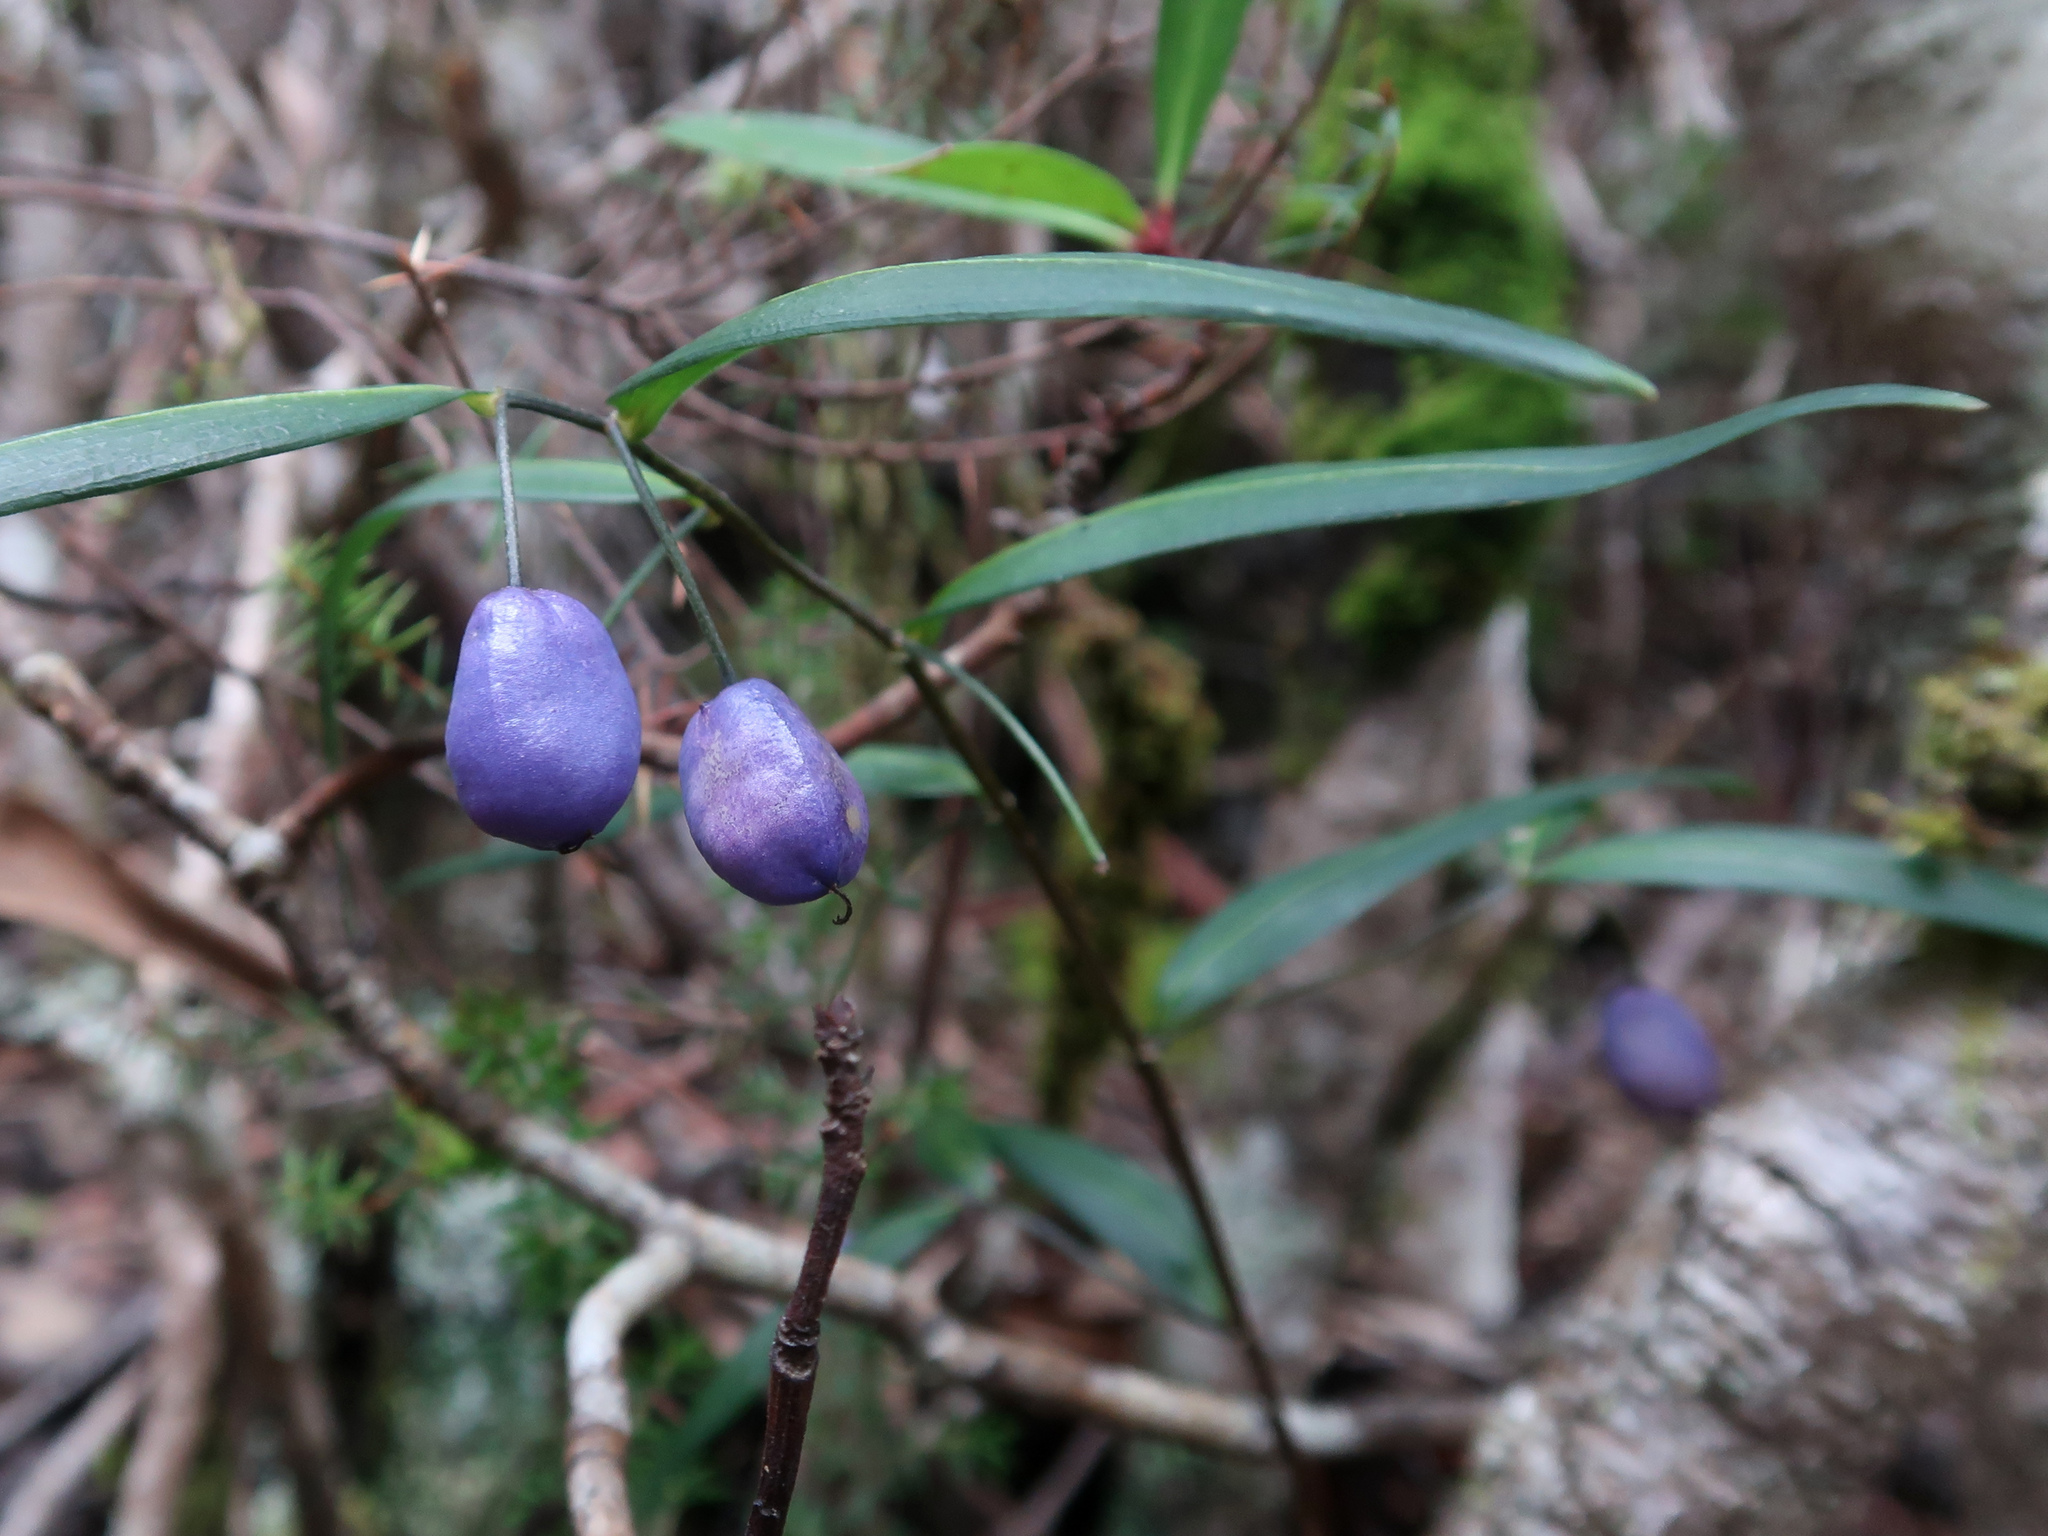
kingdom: Plantae
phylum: Tracheophyta
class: Liliopsida
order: Liliales
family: Alstroemeriaceae
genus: Drymophila
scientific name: Drymophila cyanocarpa
